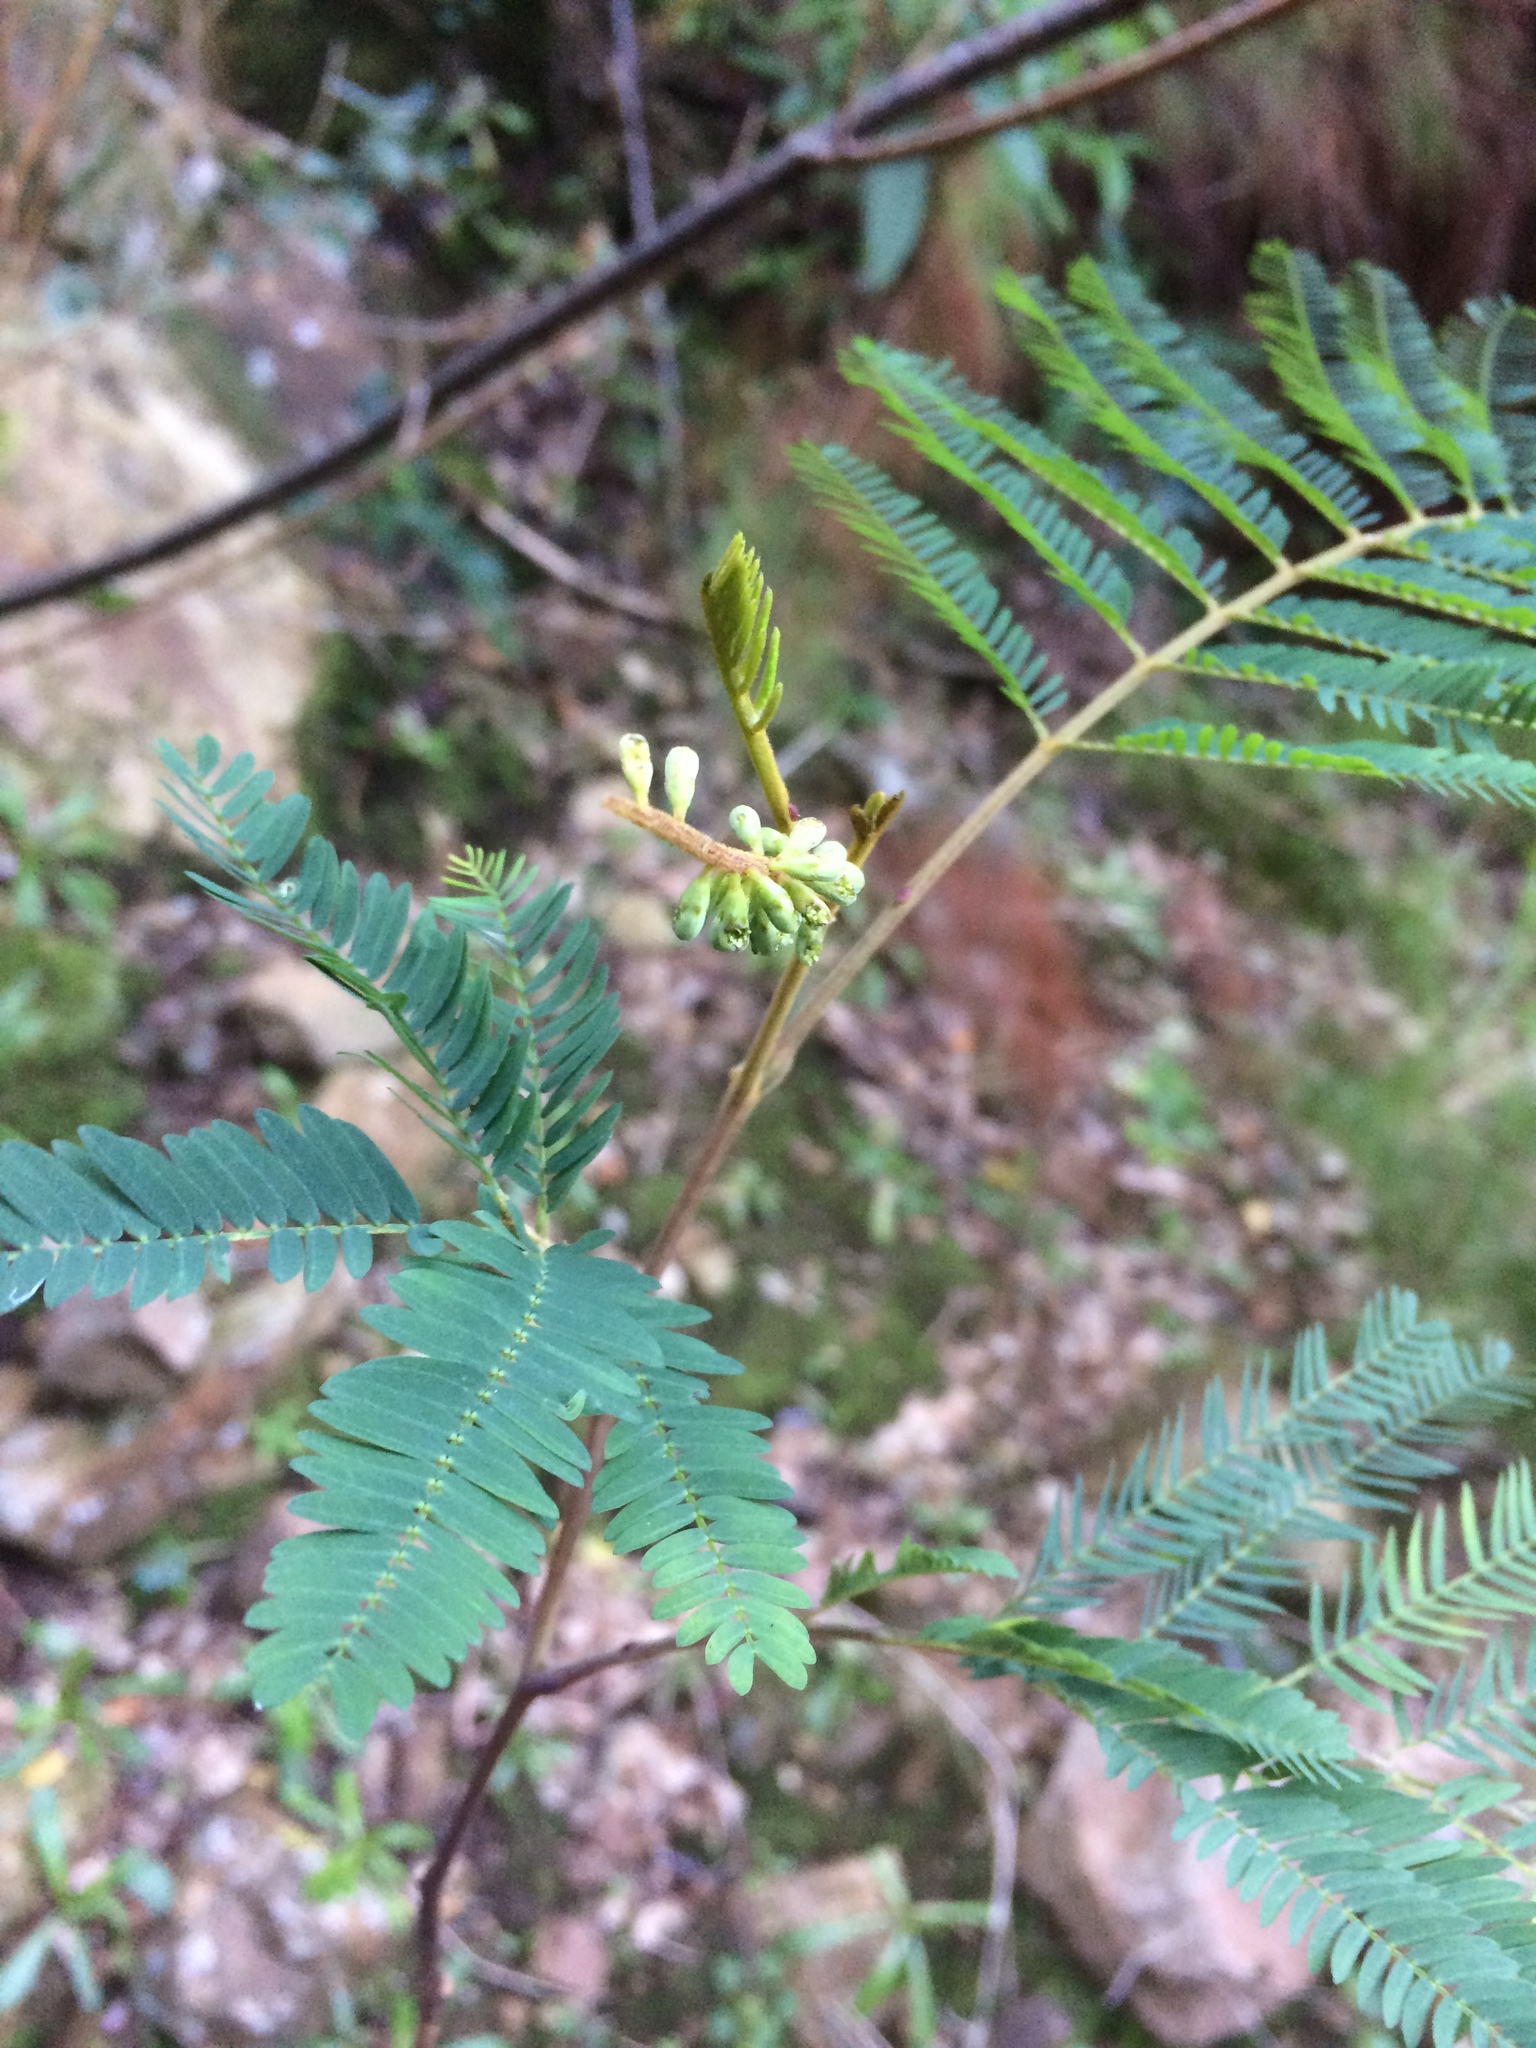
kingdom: Plantae
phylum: Tracheophyta
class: Magnoliopsida
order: Fabales
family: Fabaceae
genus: Paraserianthes
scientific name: Paraserianthes lophantha
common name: Plume albizia
